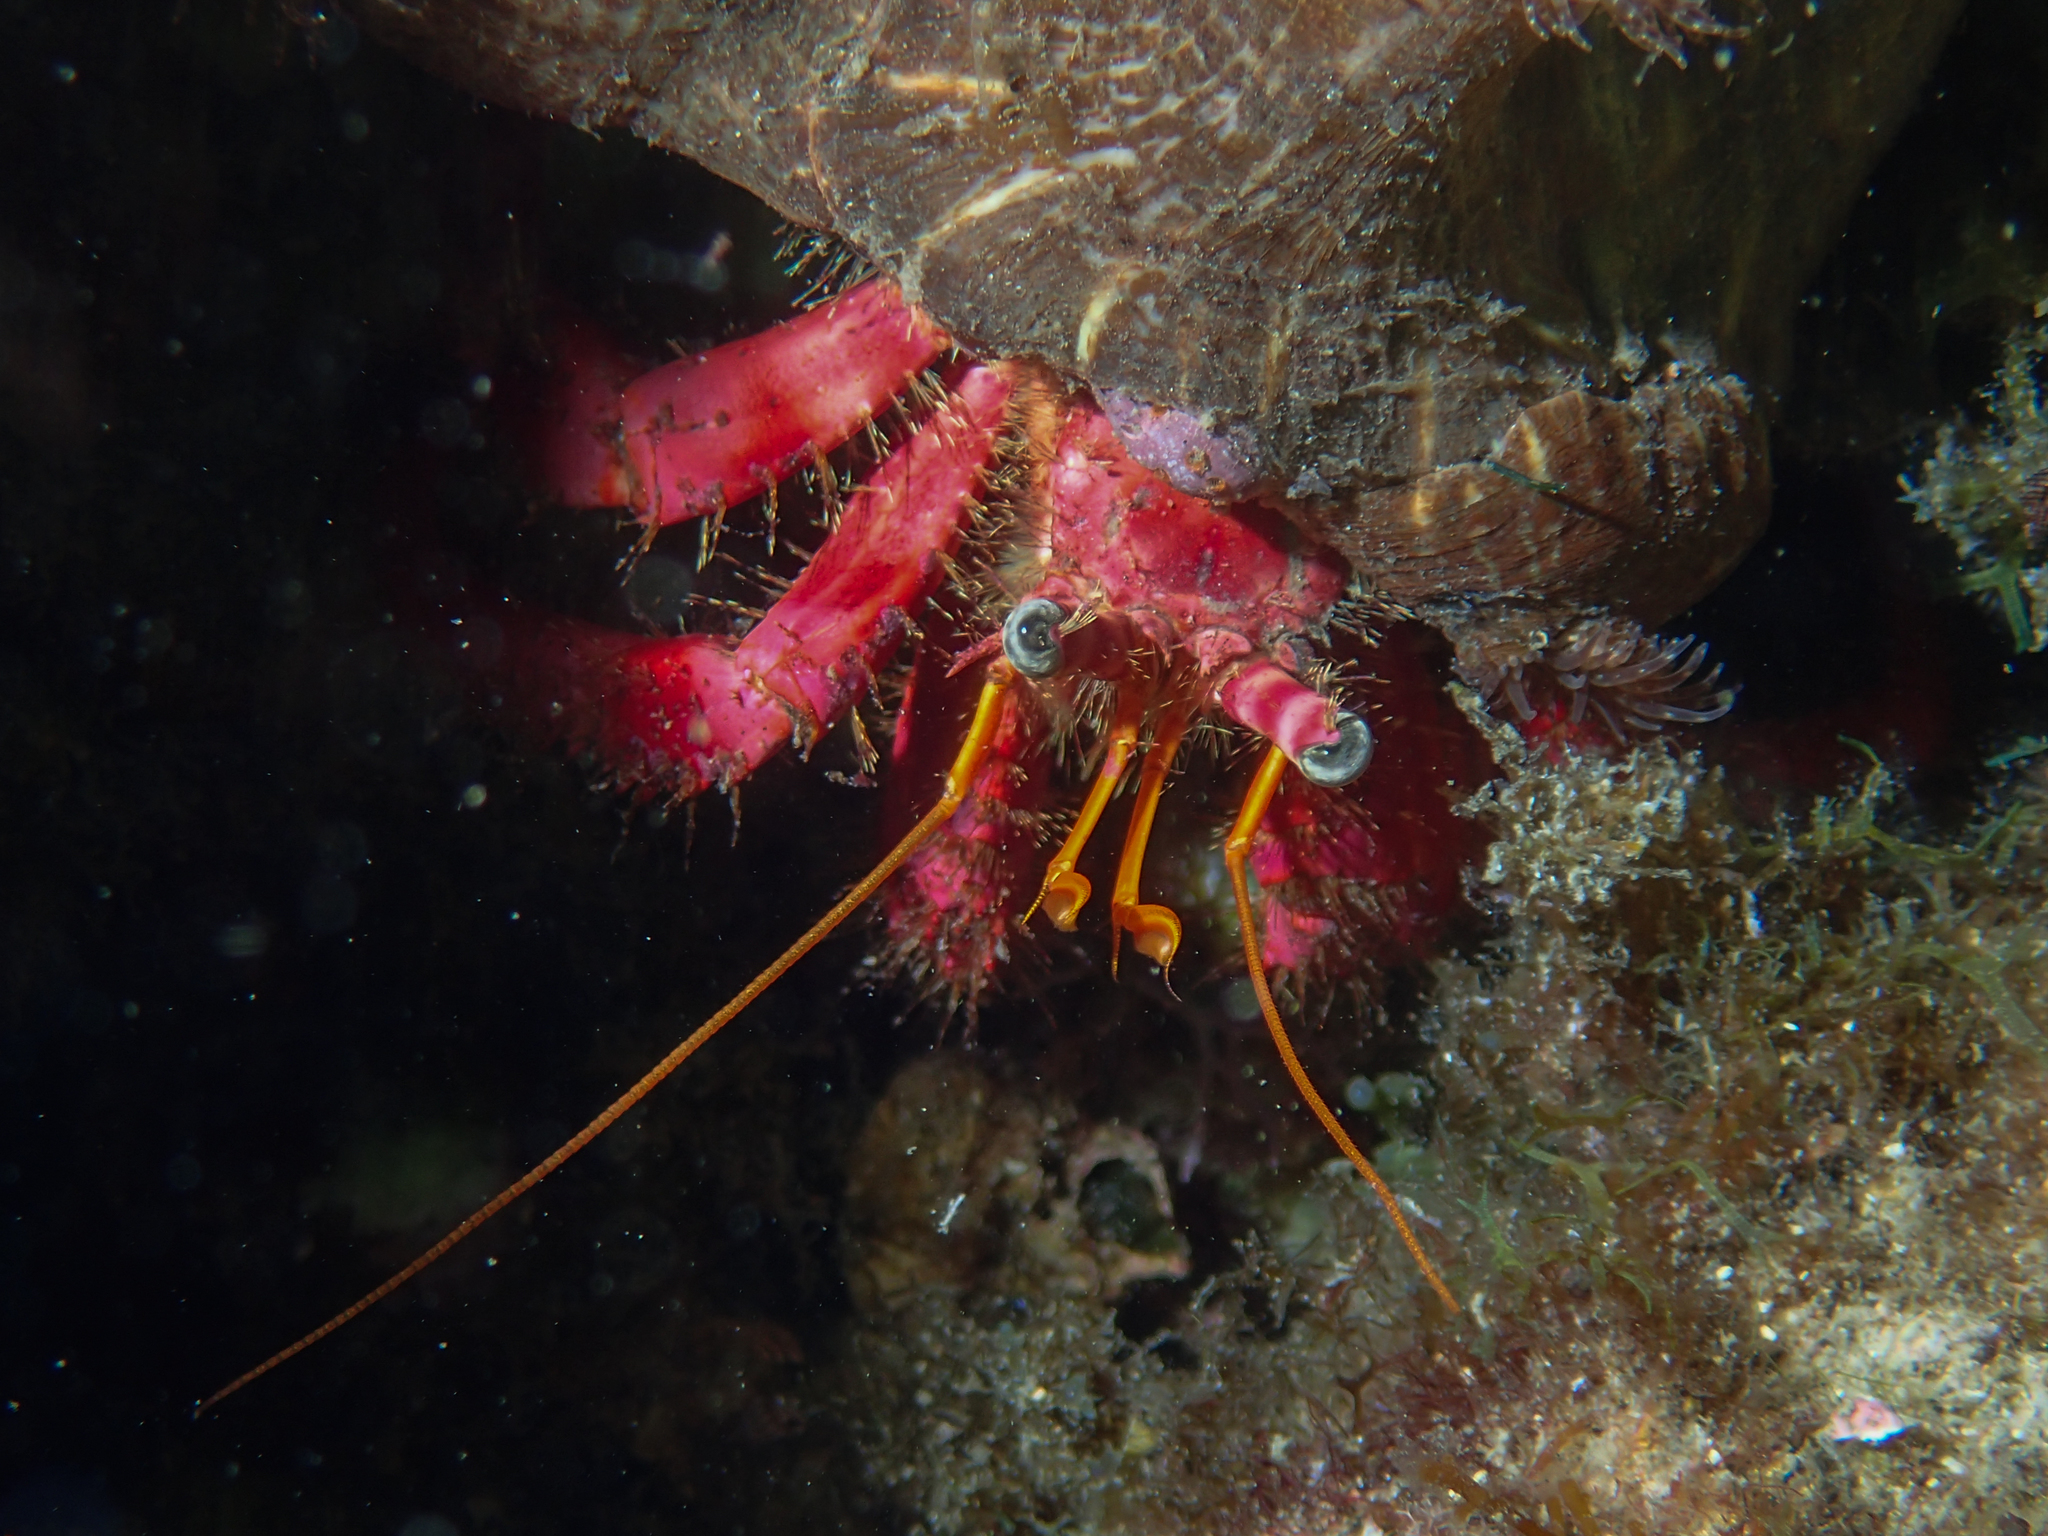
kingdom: Animalia
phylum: Arthropoda
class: Malacostraca
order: Decapoda
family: Diogenidae
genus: Dardanus
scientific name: Dardanus calidus
